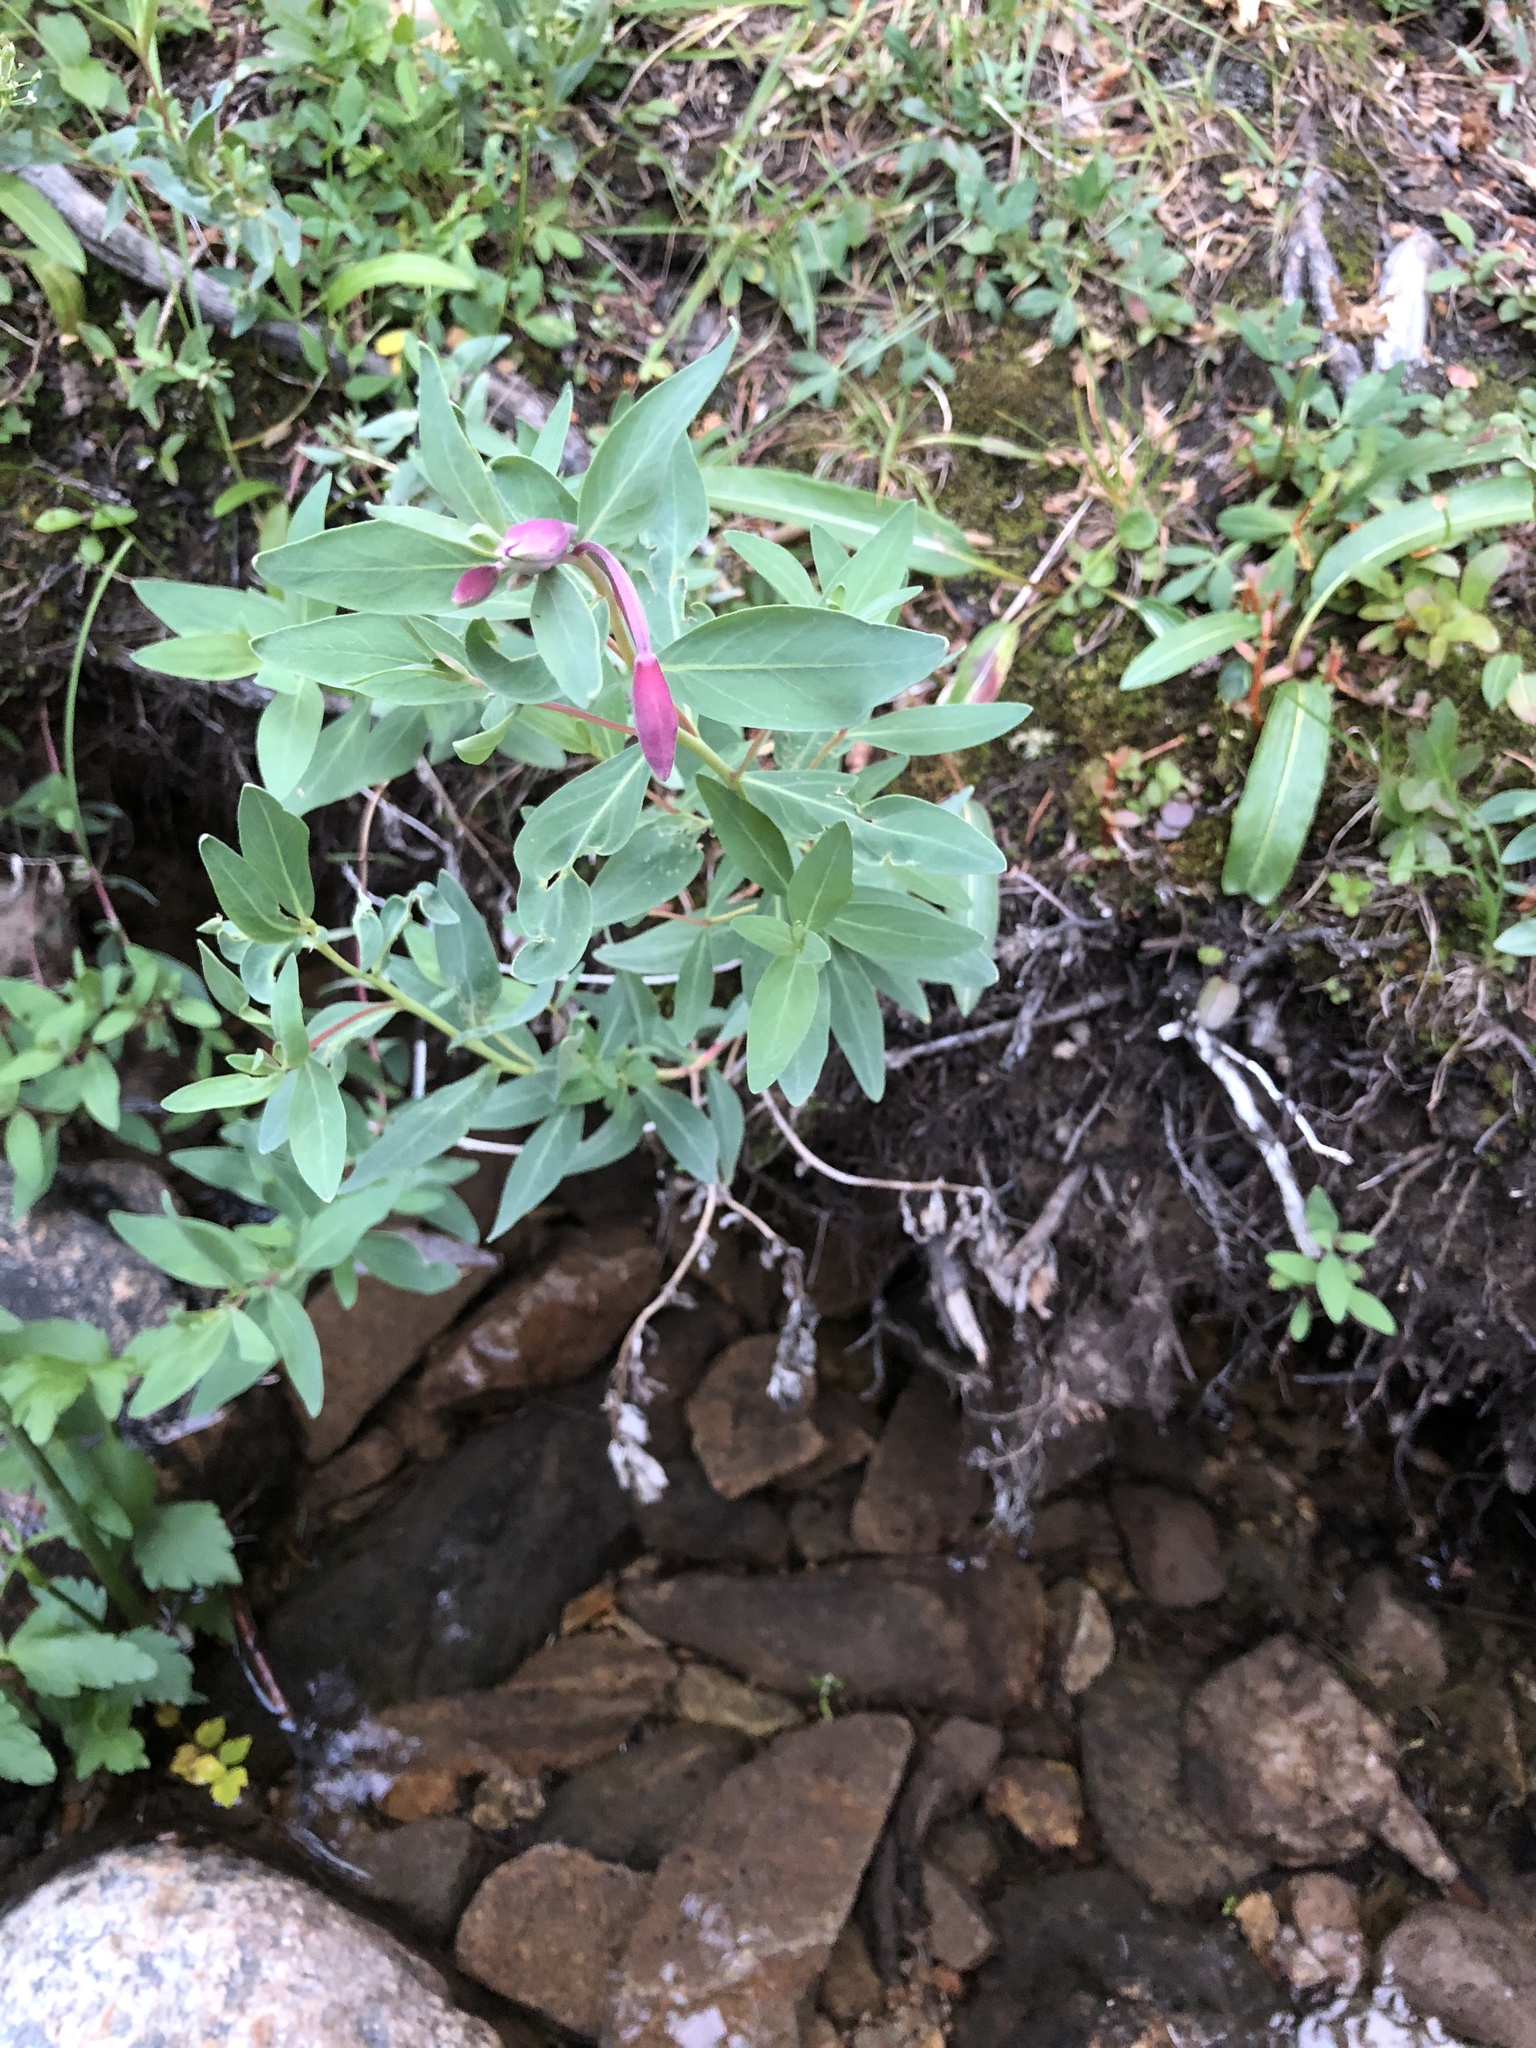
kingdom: Plantae
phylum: Tracheophyta
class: Magnoliopsida
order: Myrtales
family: Onagraceae
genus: Chamaenerion
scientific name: Chamaenerion latifolium
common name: Dwarf fireweed
